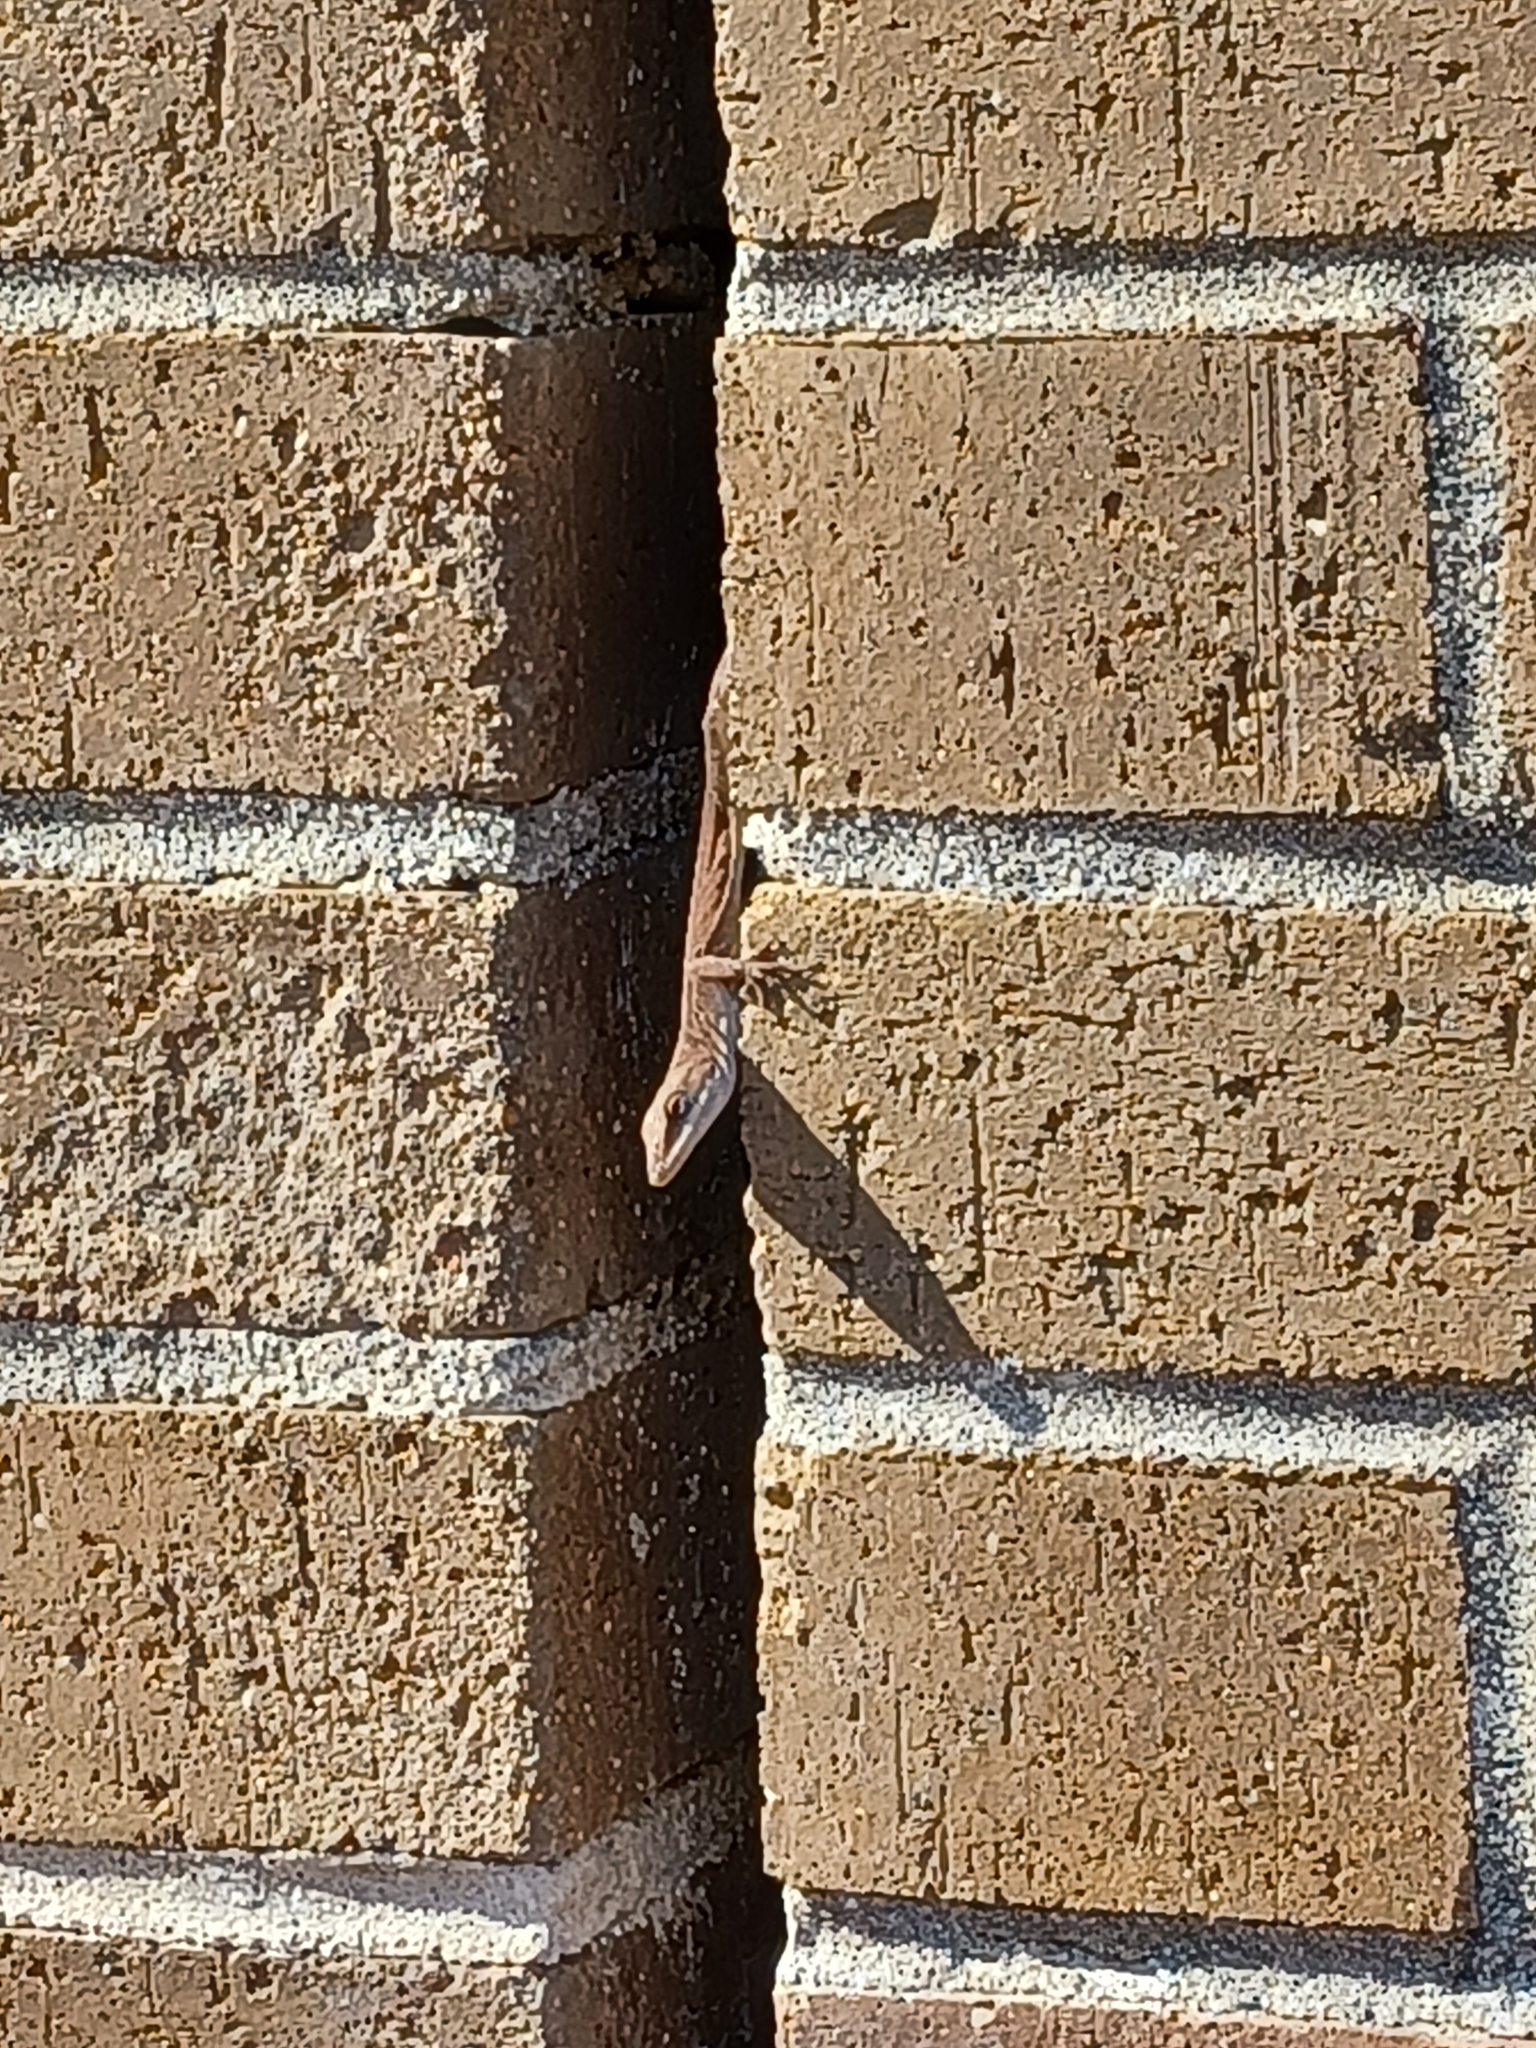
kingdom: Animalia
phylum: Chordata
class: Squamata
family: Dactyloidae
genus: Anolis
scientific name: Anolis carolinensis
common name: Green anole
